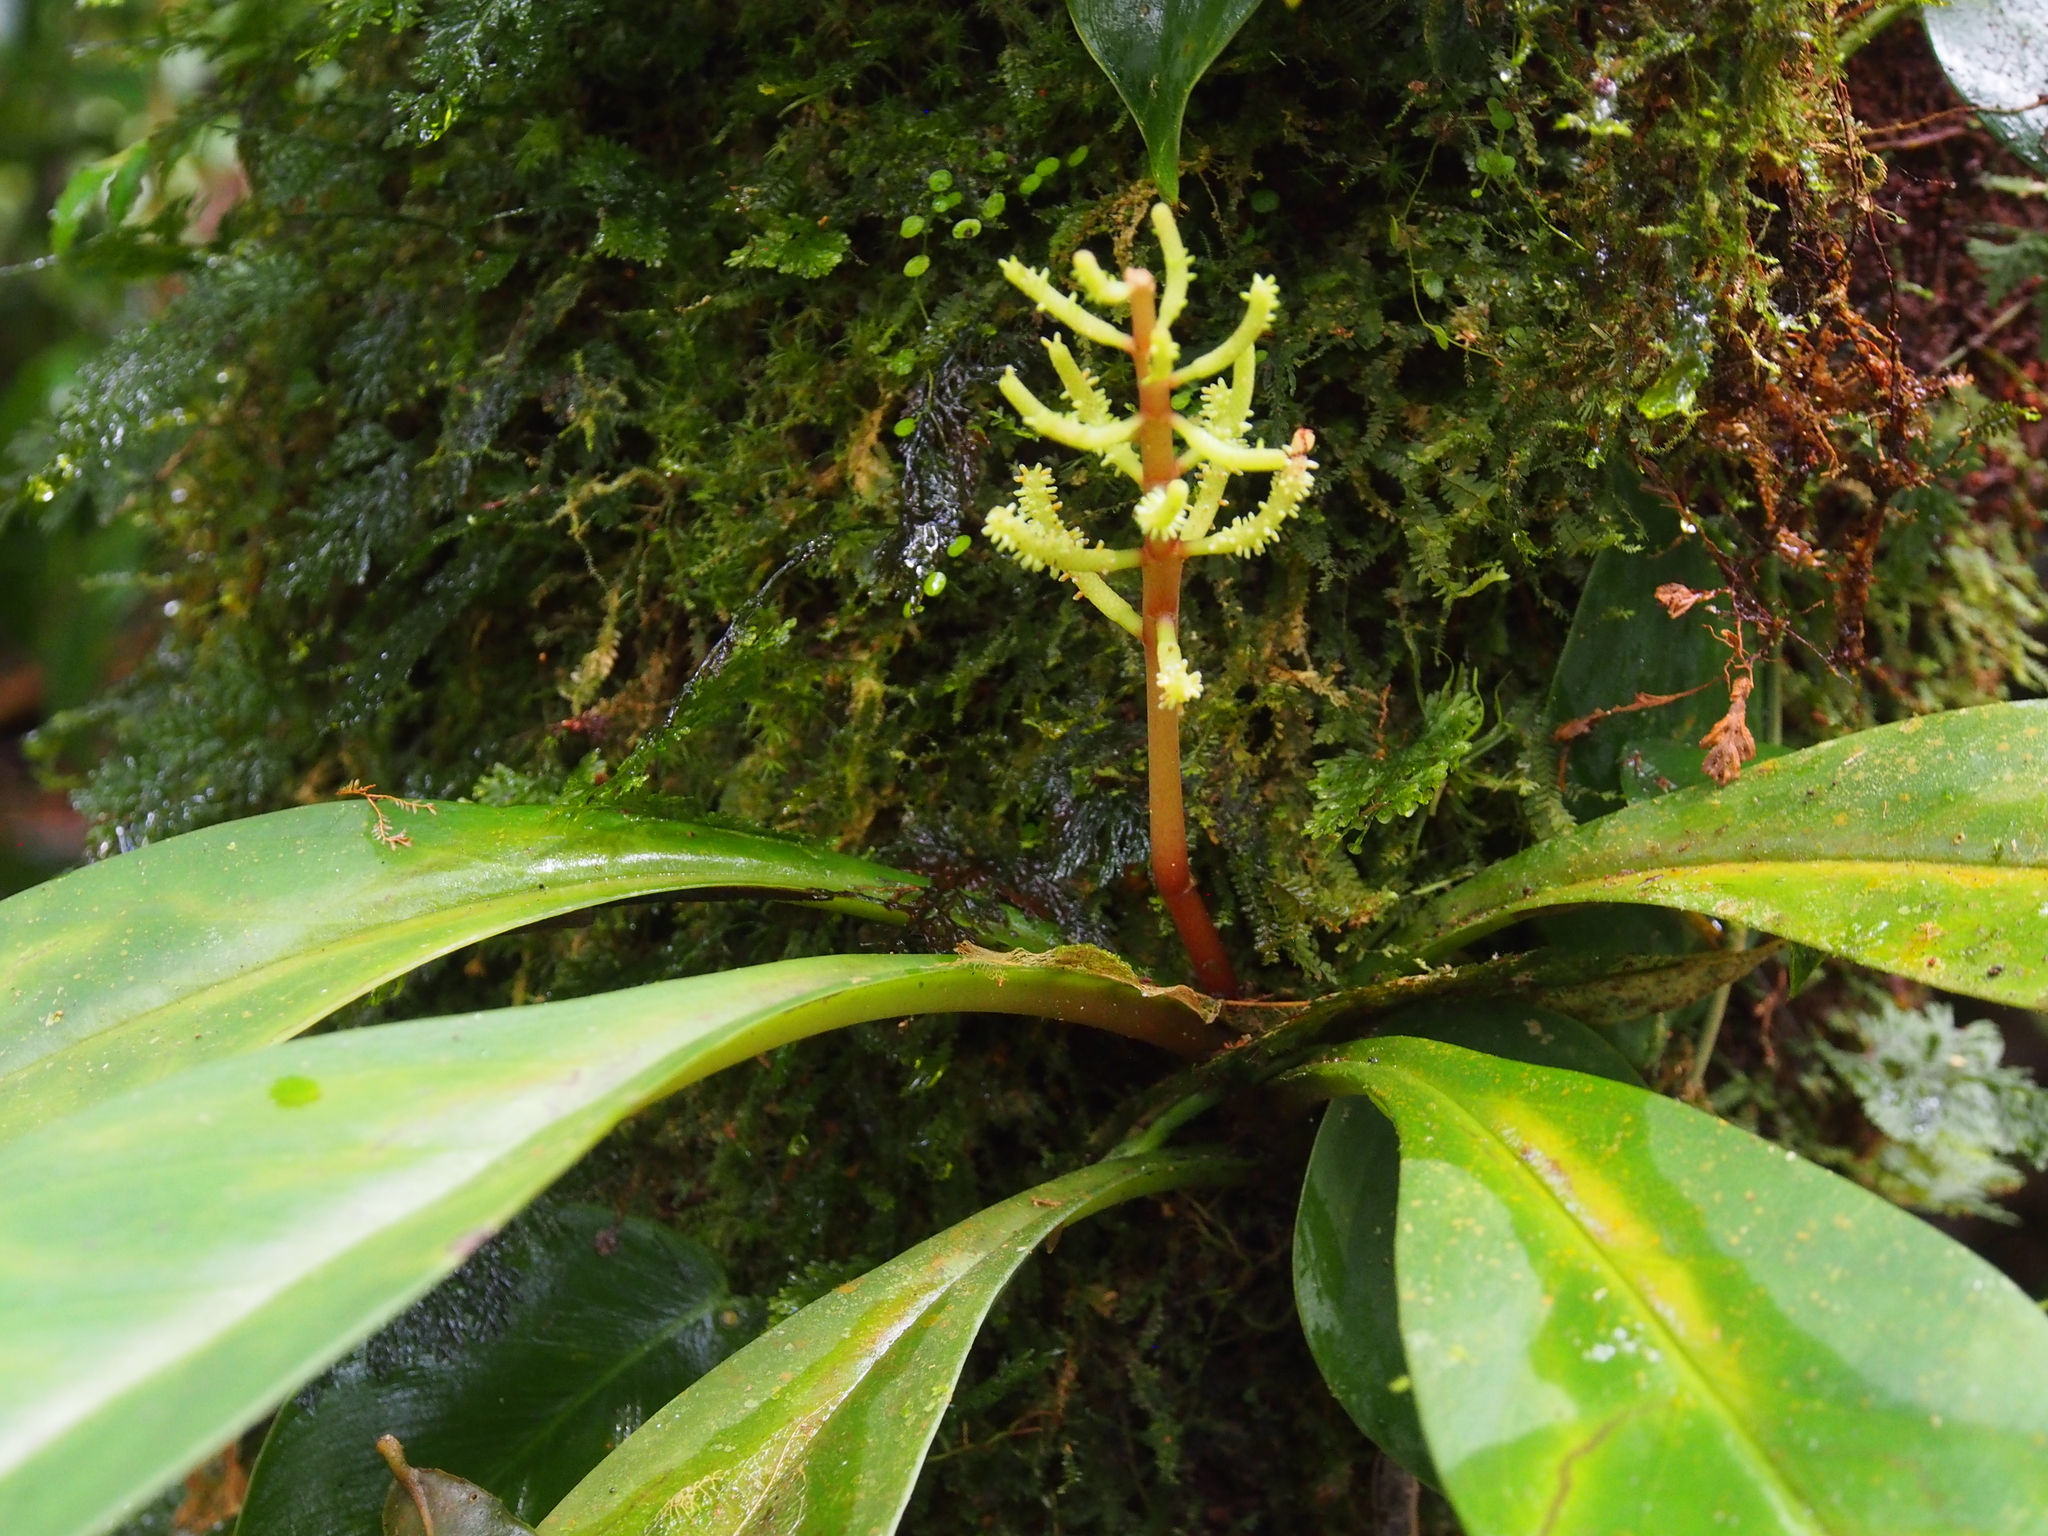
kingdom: Plantae
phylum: Tracheophyta
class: Magnoliopsida
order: Piperales
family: Piperaceae
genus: Peperomia
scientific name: Peperomia pernambucensis
